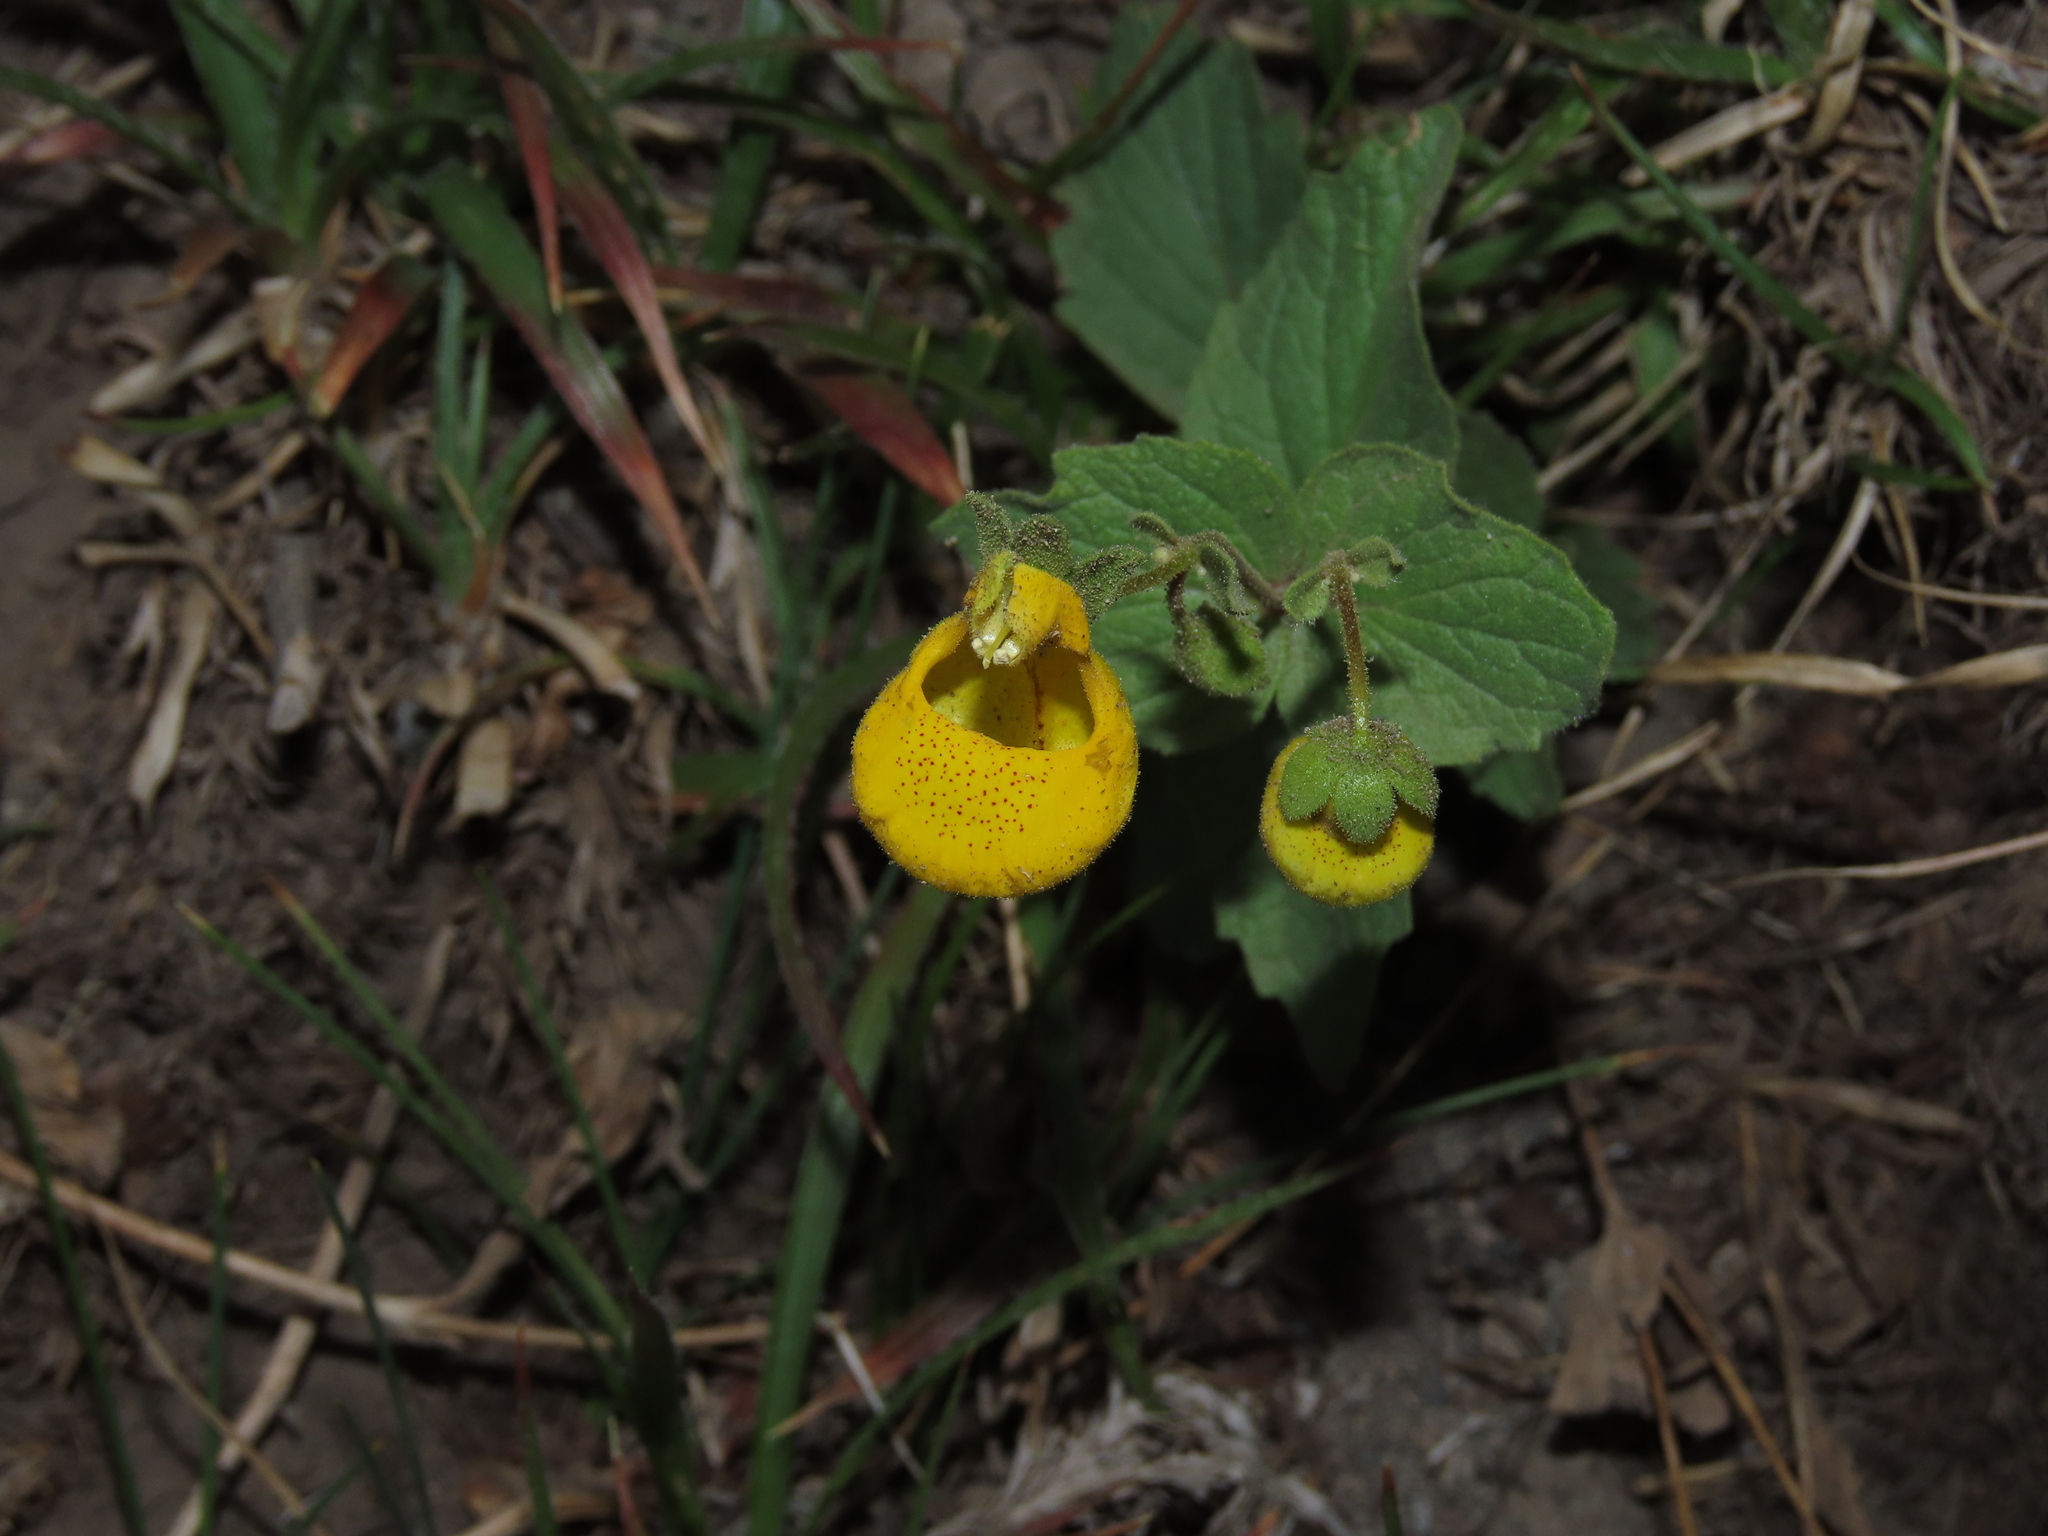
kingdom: Plantae
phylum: Tracheophyta
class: Magnoliopsida
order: Lamiales
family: Calceolariaceae
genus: Calceolaria
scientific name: Calceolaria corymbosa
